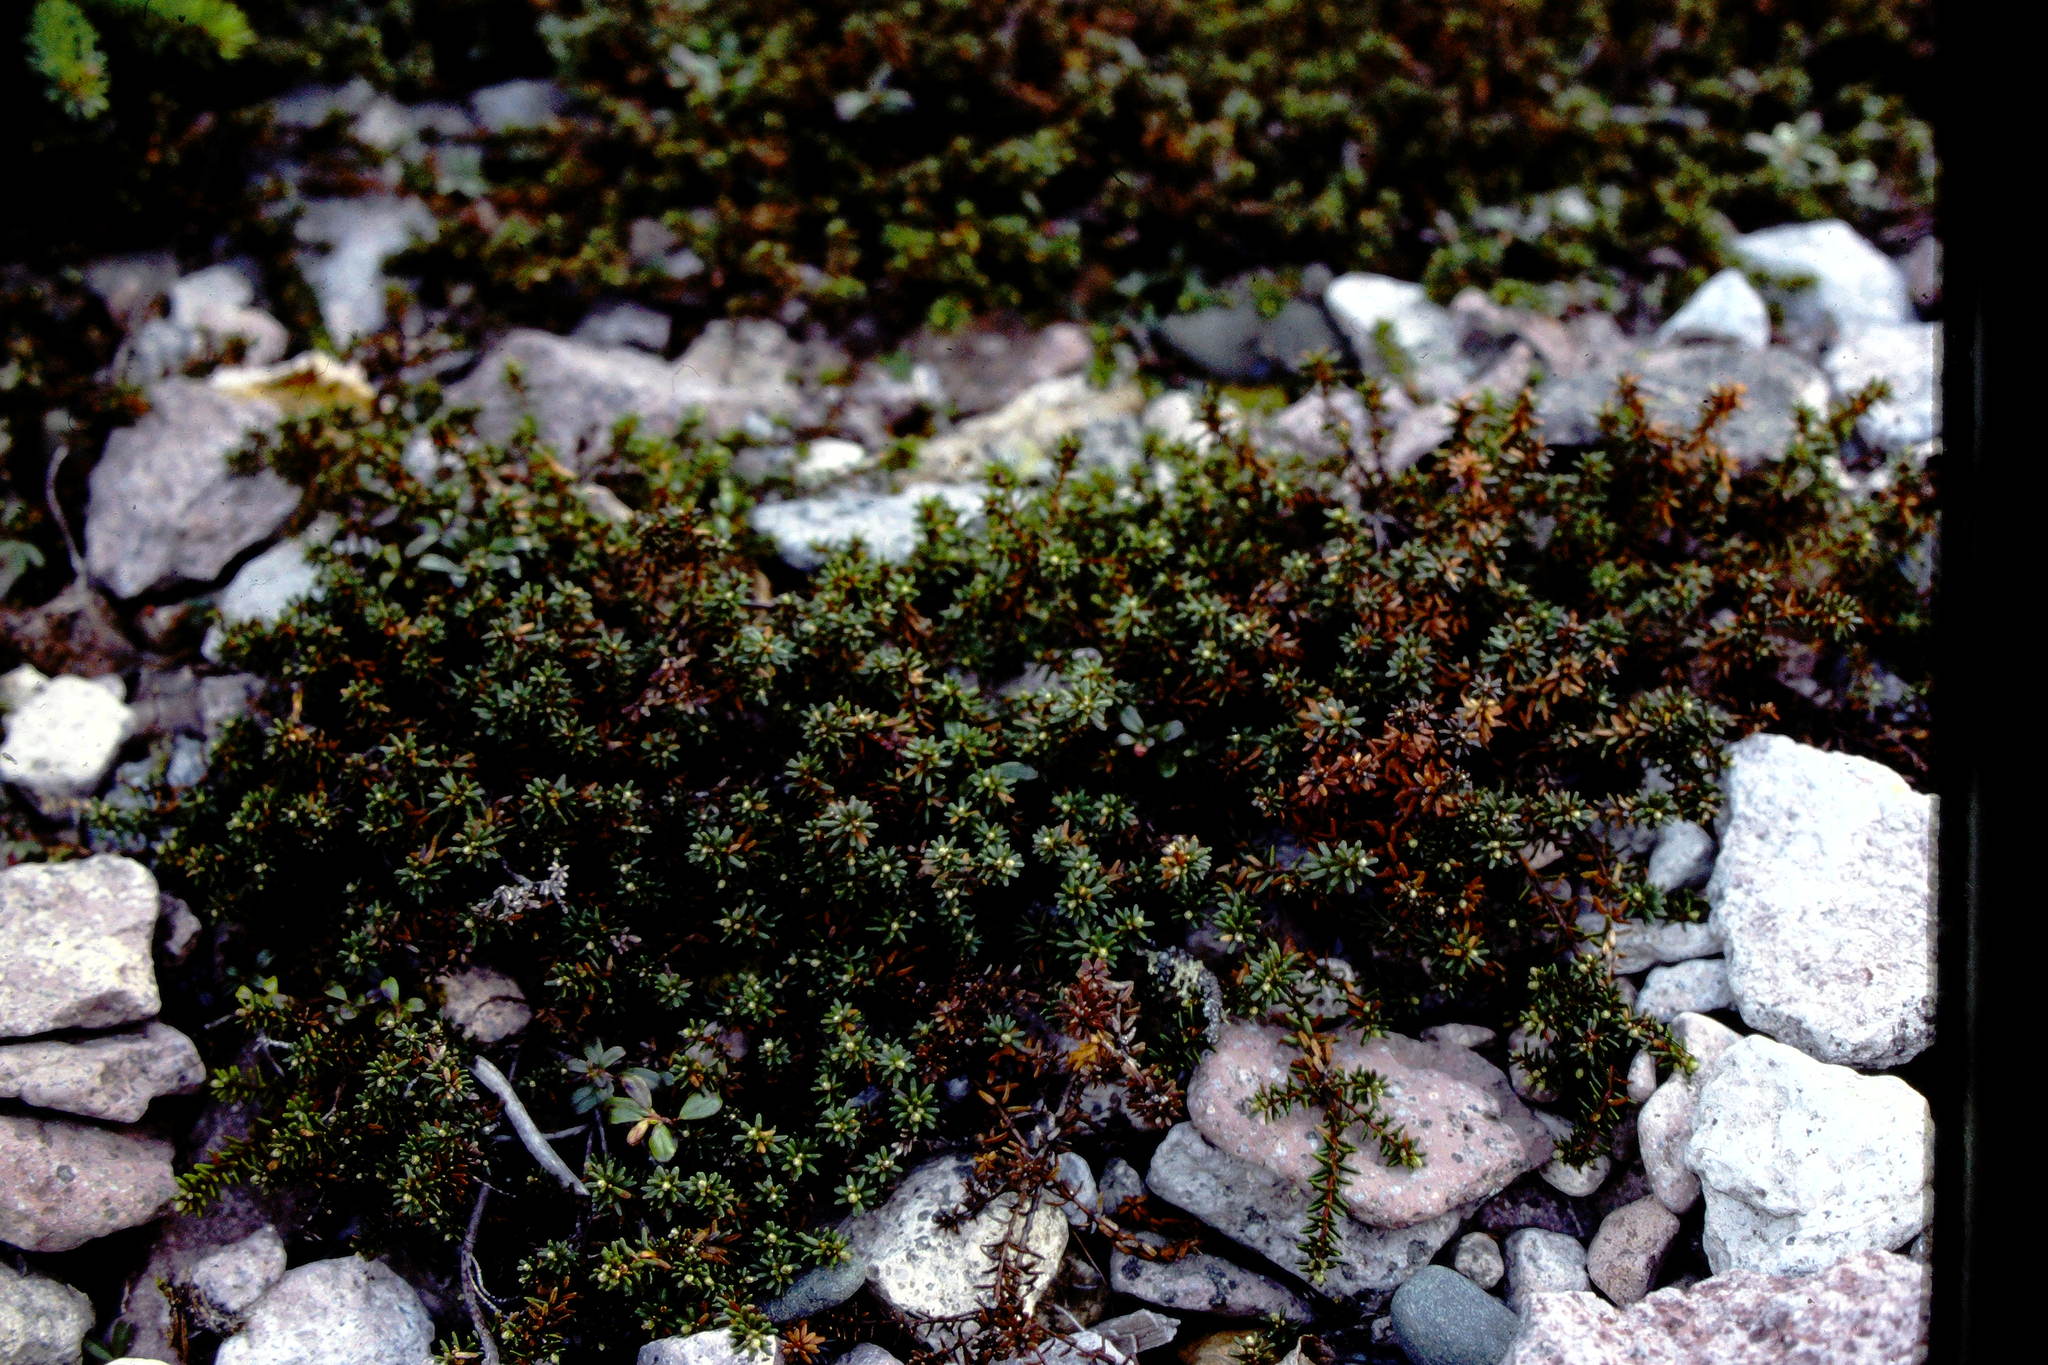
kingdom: Plantae
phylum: Tracheophyta
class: Magnoliopsida
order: Ericales
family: Ericaceae
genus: Empetrum
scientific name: Empetrum nigrum
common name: Black crowberry
